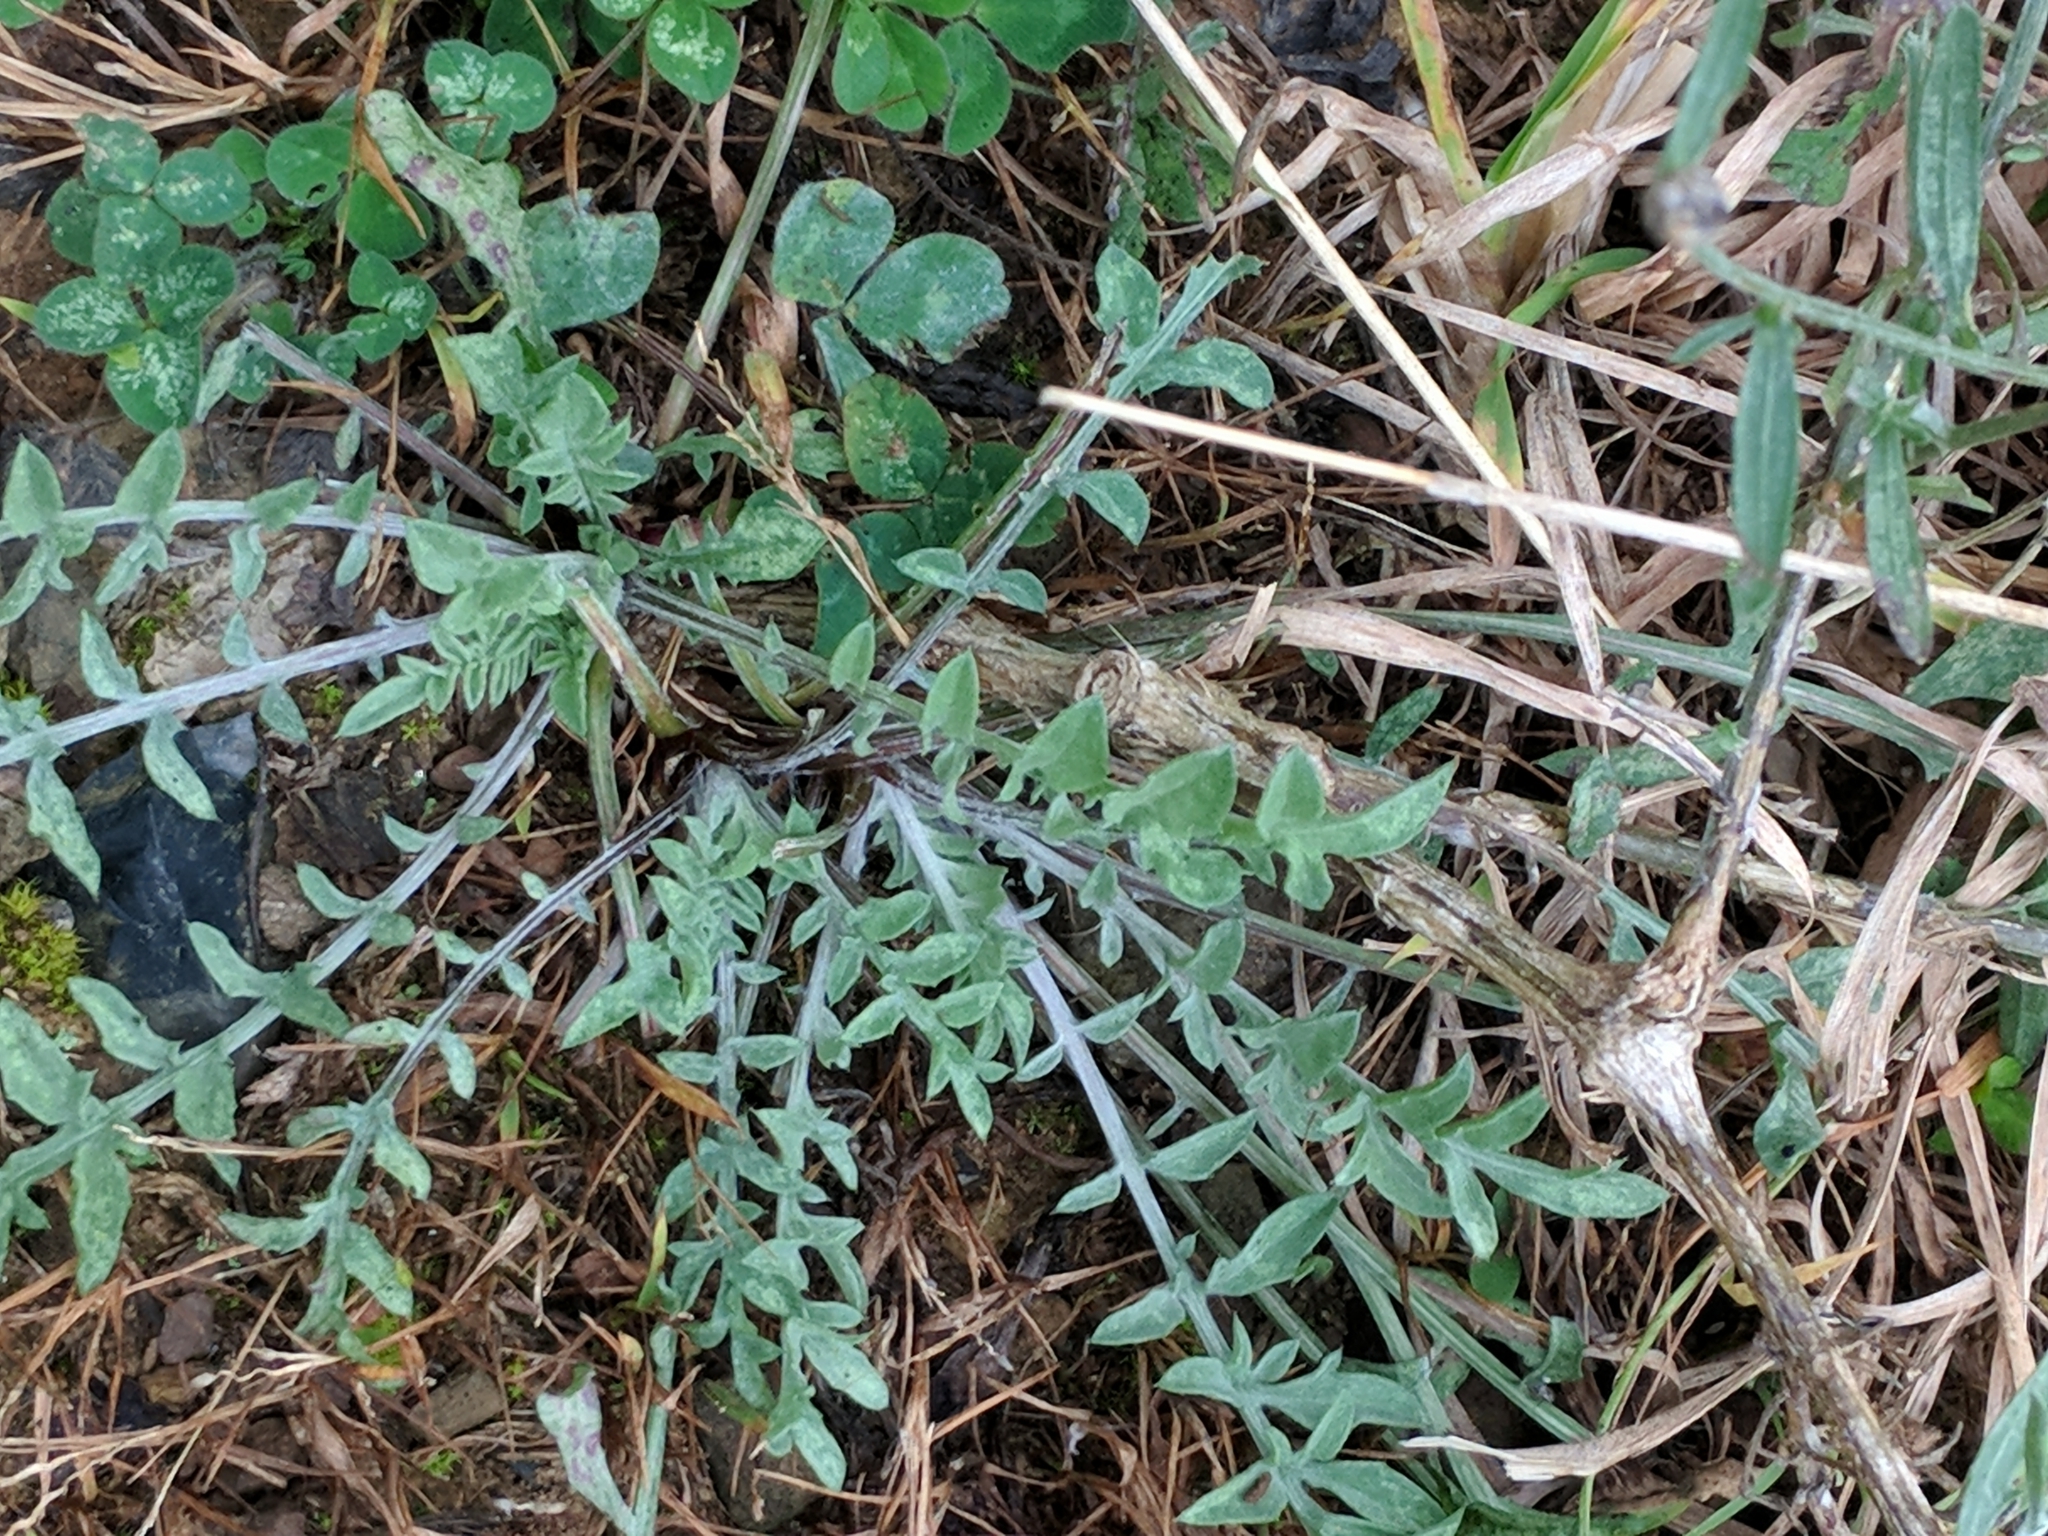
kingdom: Plantae
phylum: Tracheophyta
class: Magnoliopsida
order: Asterales
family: Asteraceae
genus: Centaurea
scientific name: Centaurea stoebe
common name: Spotted knapweed
